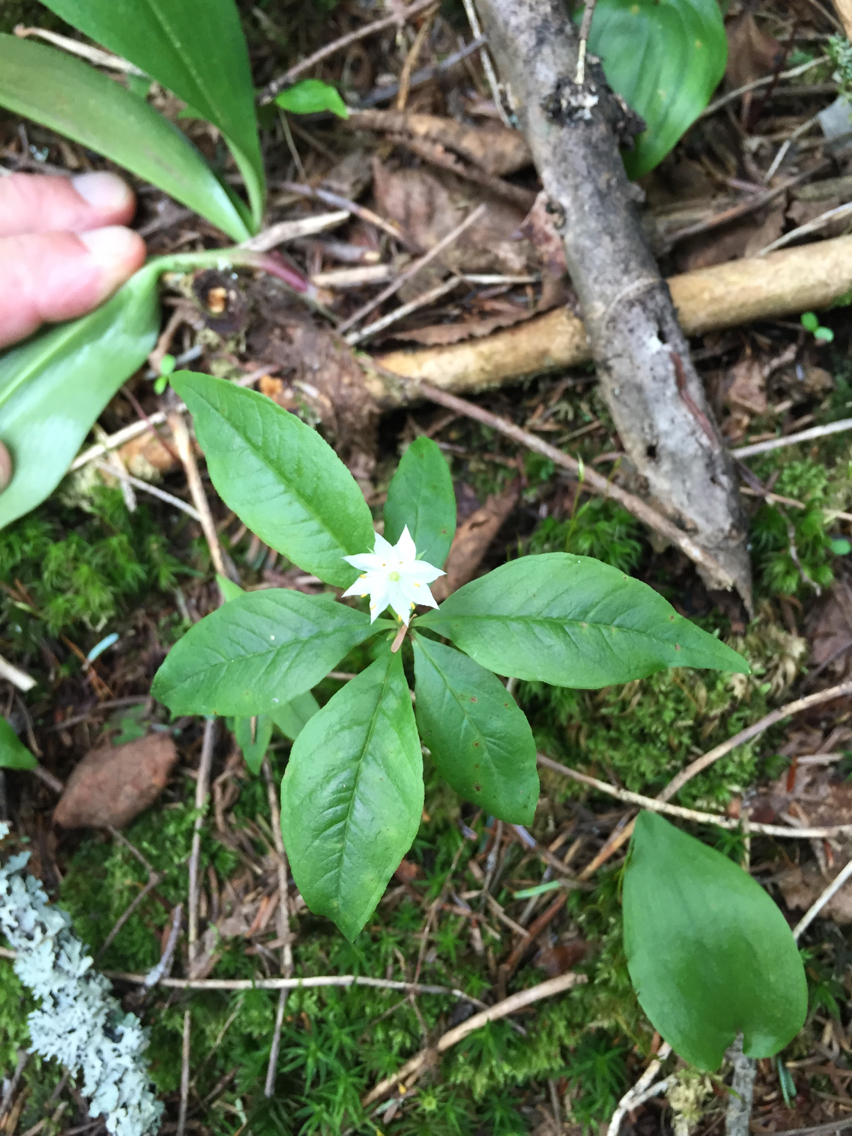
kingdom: Plantae
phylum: Tracheophyta
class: Magnoliopsida
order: Ericales
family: Primulaceae
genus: Lysimachia
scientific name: Lysimachia borealis
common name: American starflower
